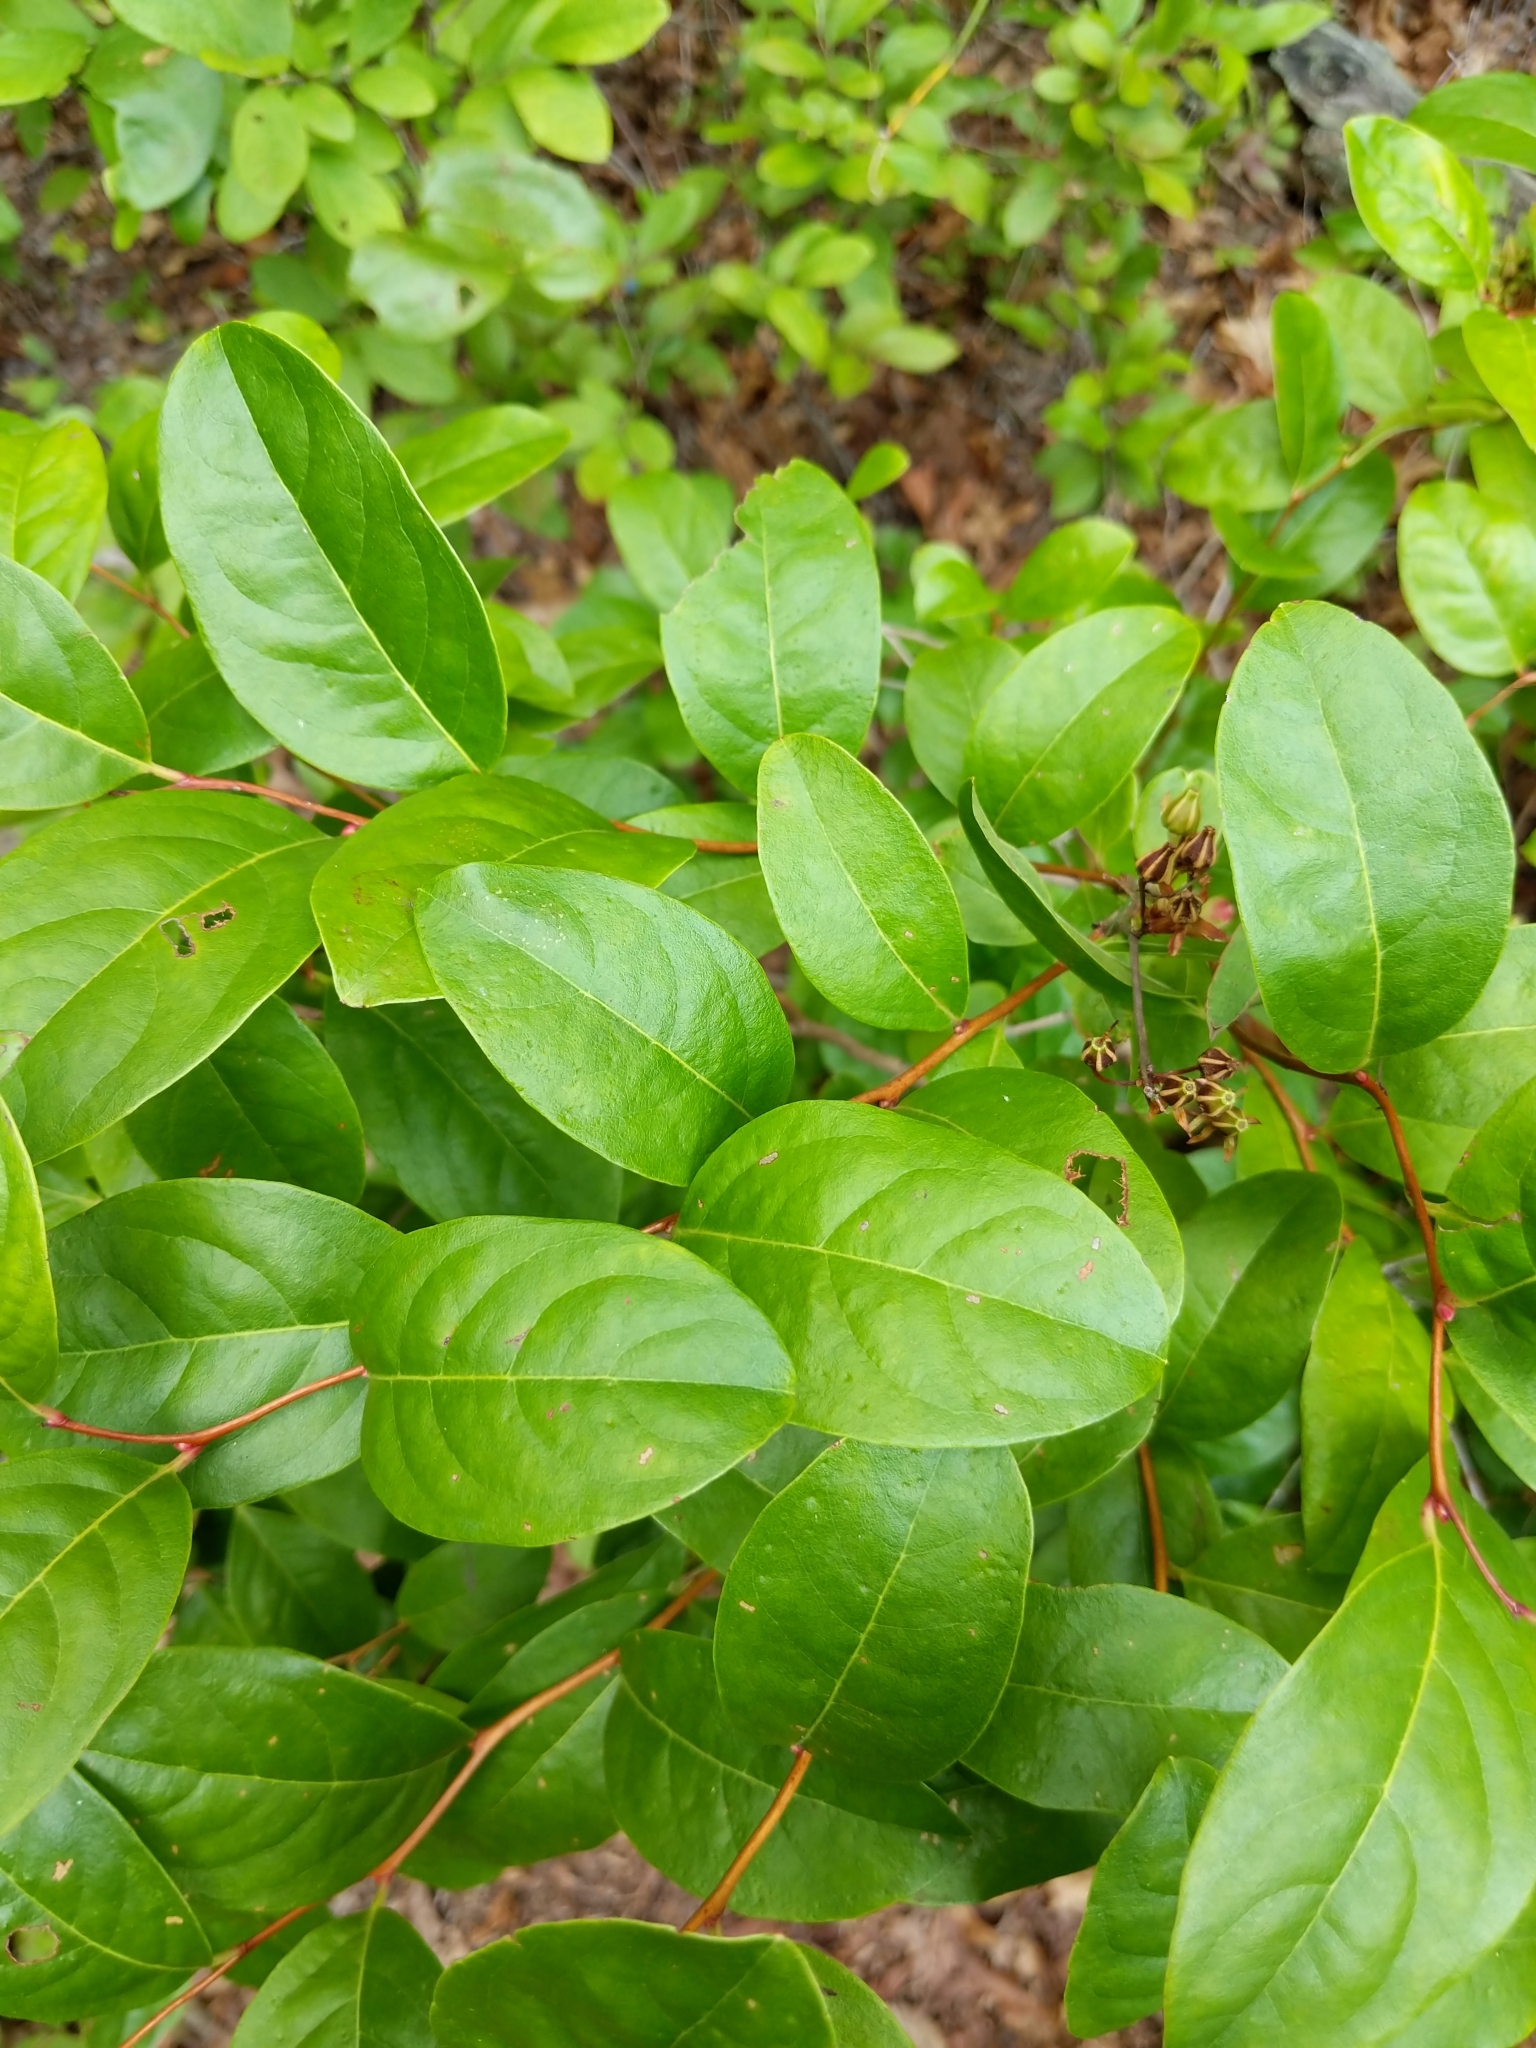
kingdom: Plantae
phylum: Tracheophyta
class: Magnoliopsida
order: Ericales
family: Ericaceae
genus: Lyonia
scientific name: Lyonia mariana
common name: Staggerbush
